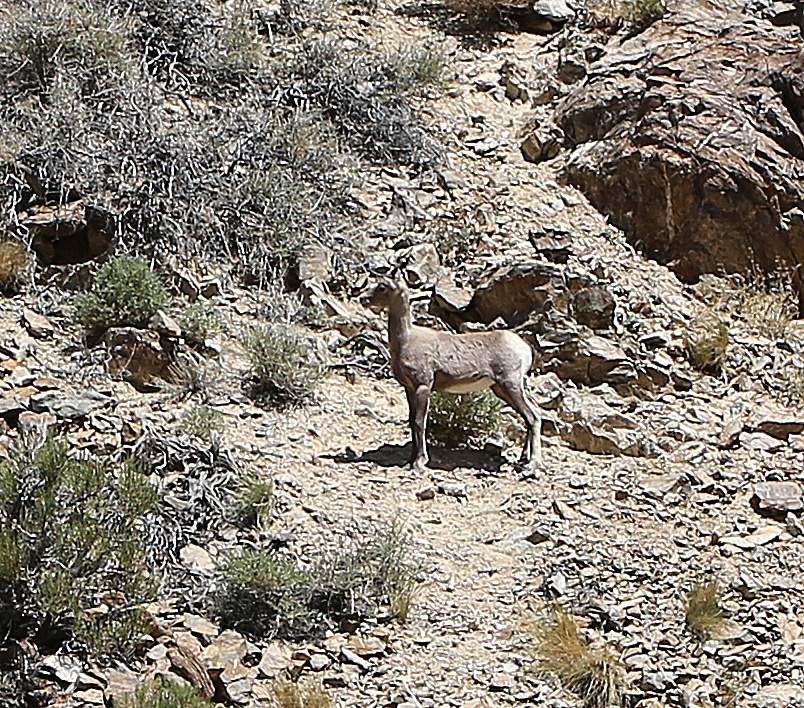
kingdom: Animalia
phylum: Chordata
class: Mammalia
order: Artiodactyla
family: Bovidae
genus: Ovis
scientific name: Ovis canadensis
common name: Bighorn sheep
